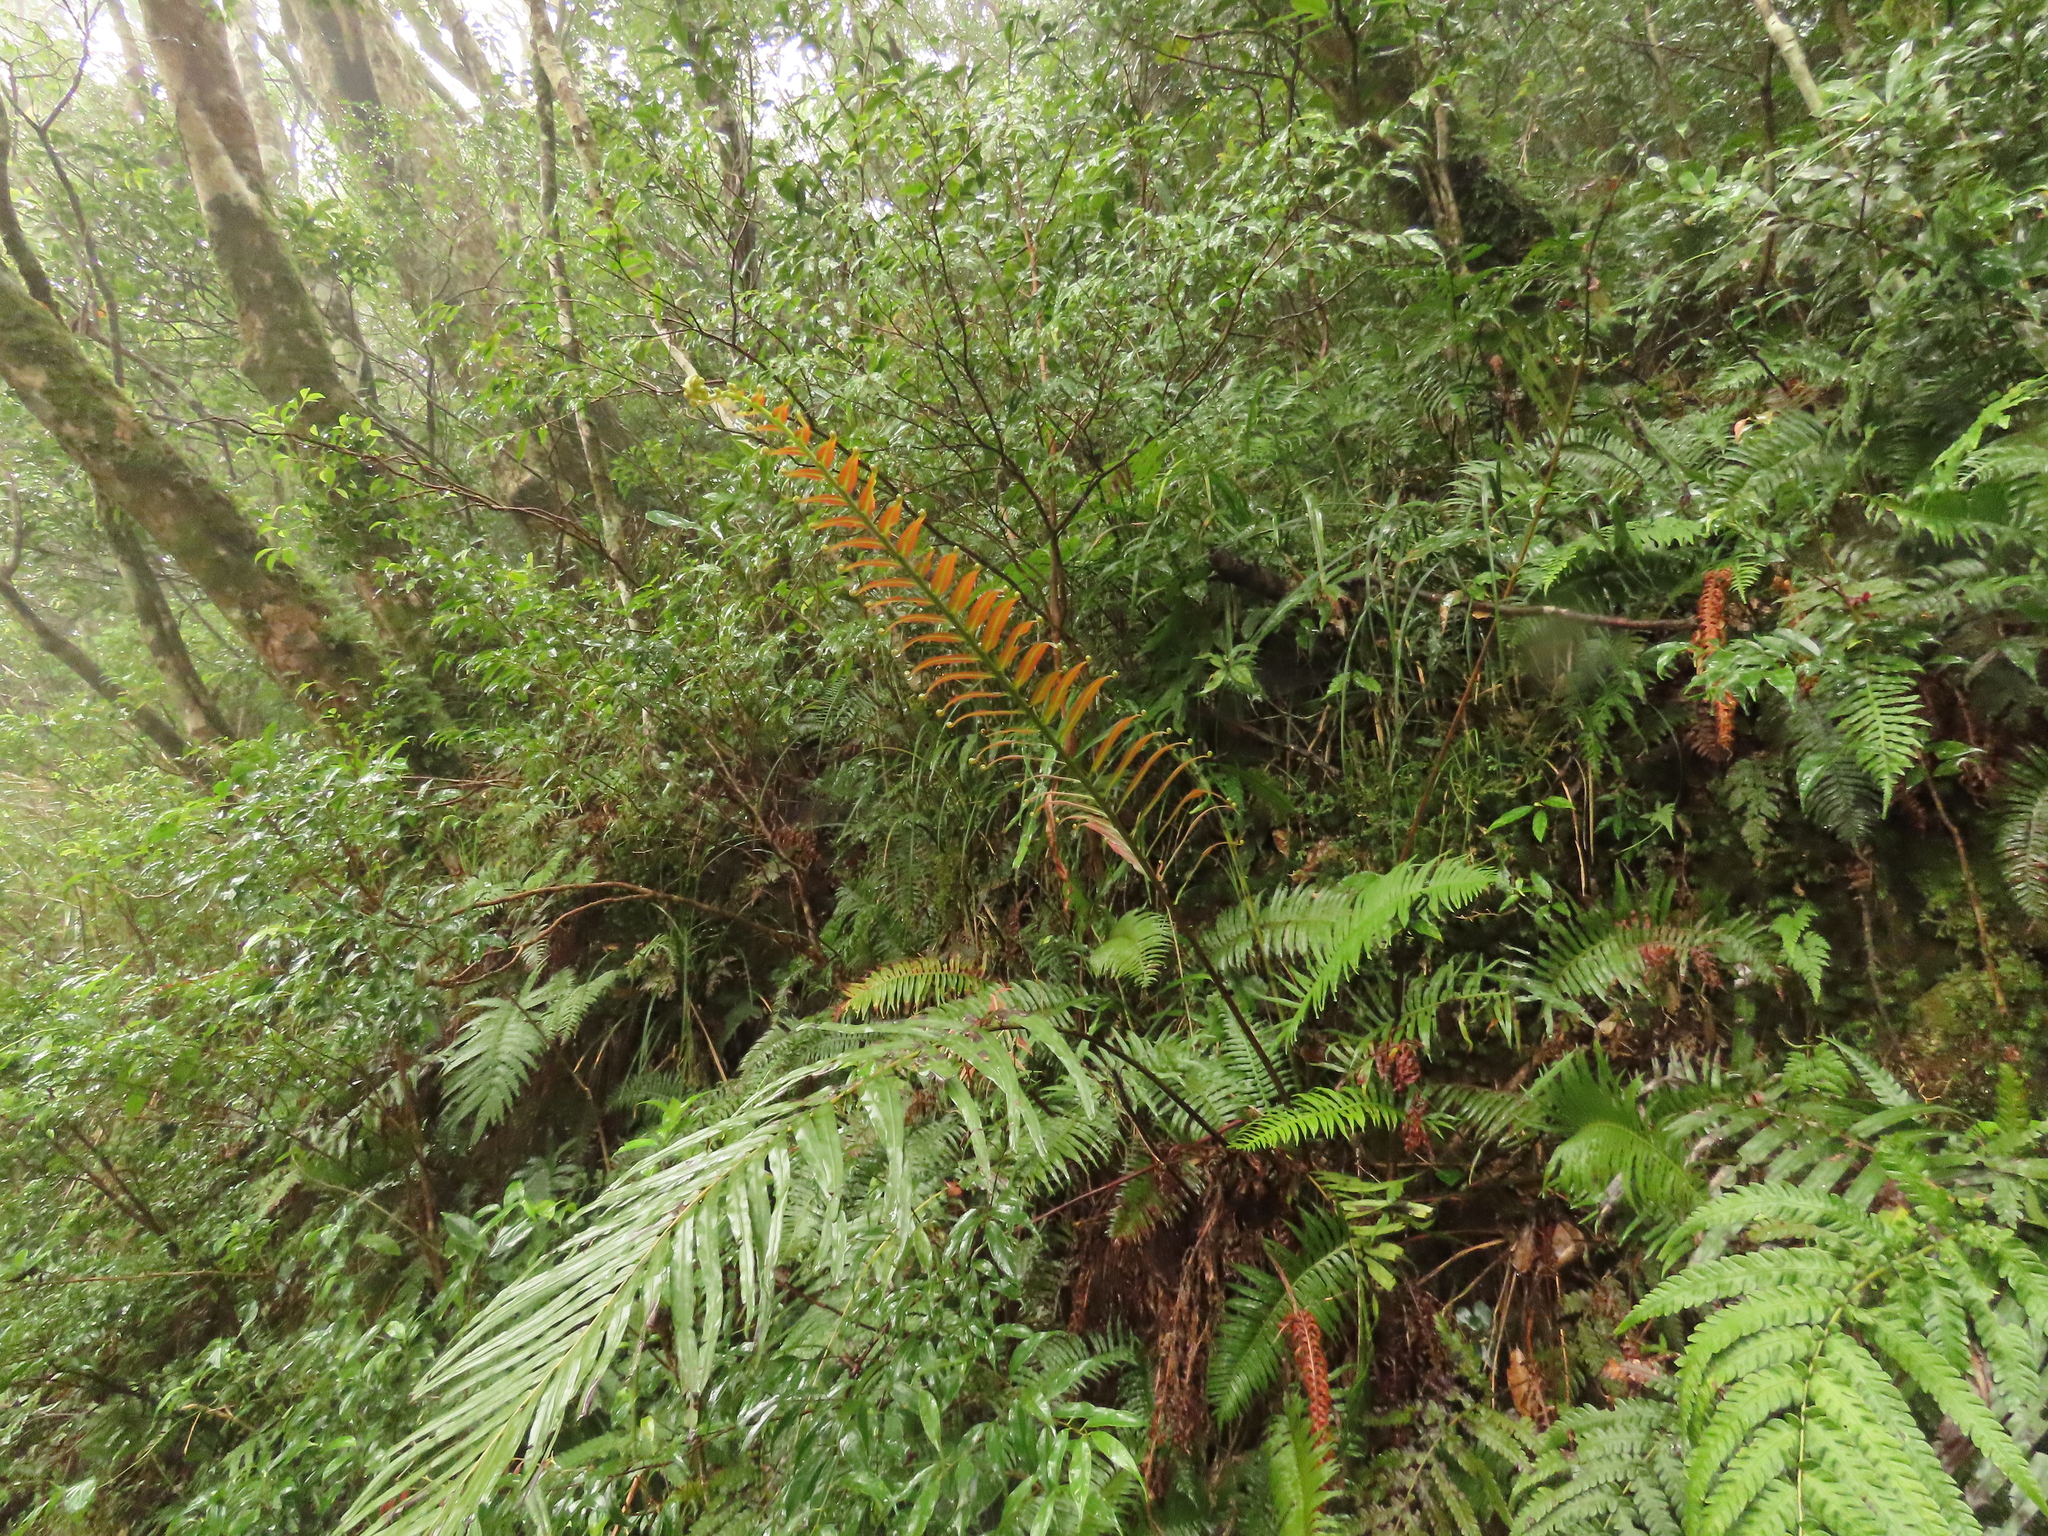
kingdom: Plantae
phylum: Tracheophyta
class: Polypodiopsida
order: Polypodiales
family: Blechnaceae
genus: Blechnopsis
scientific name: Blechnopsis orientalis
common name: Oriental blechnum
